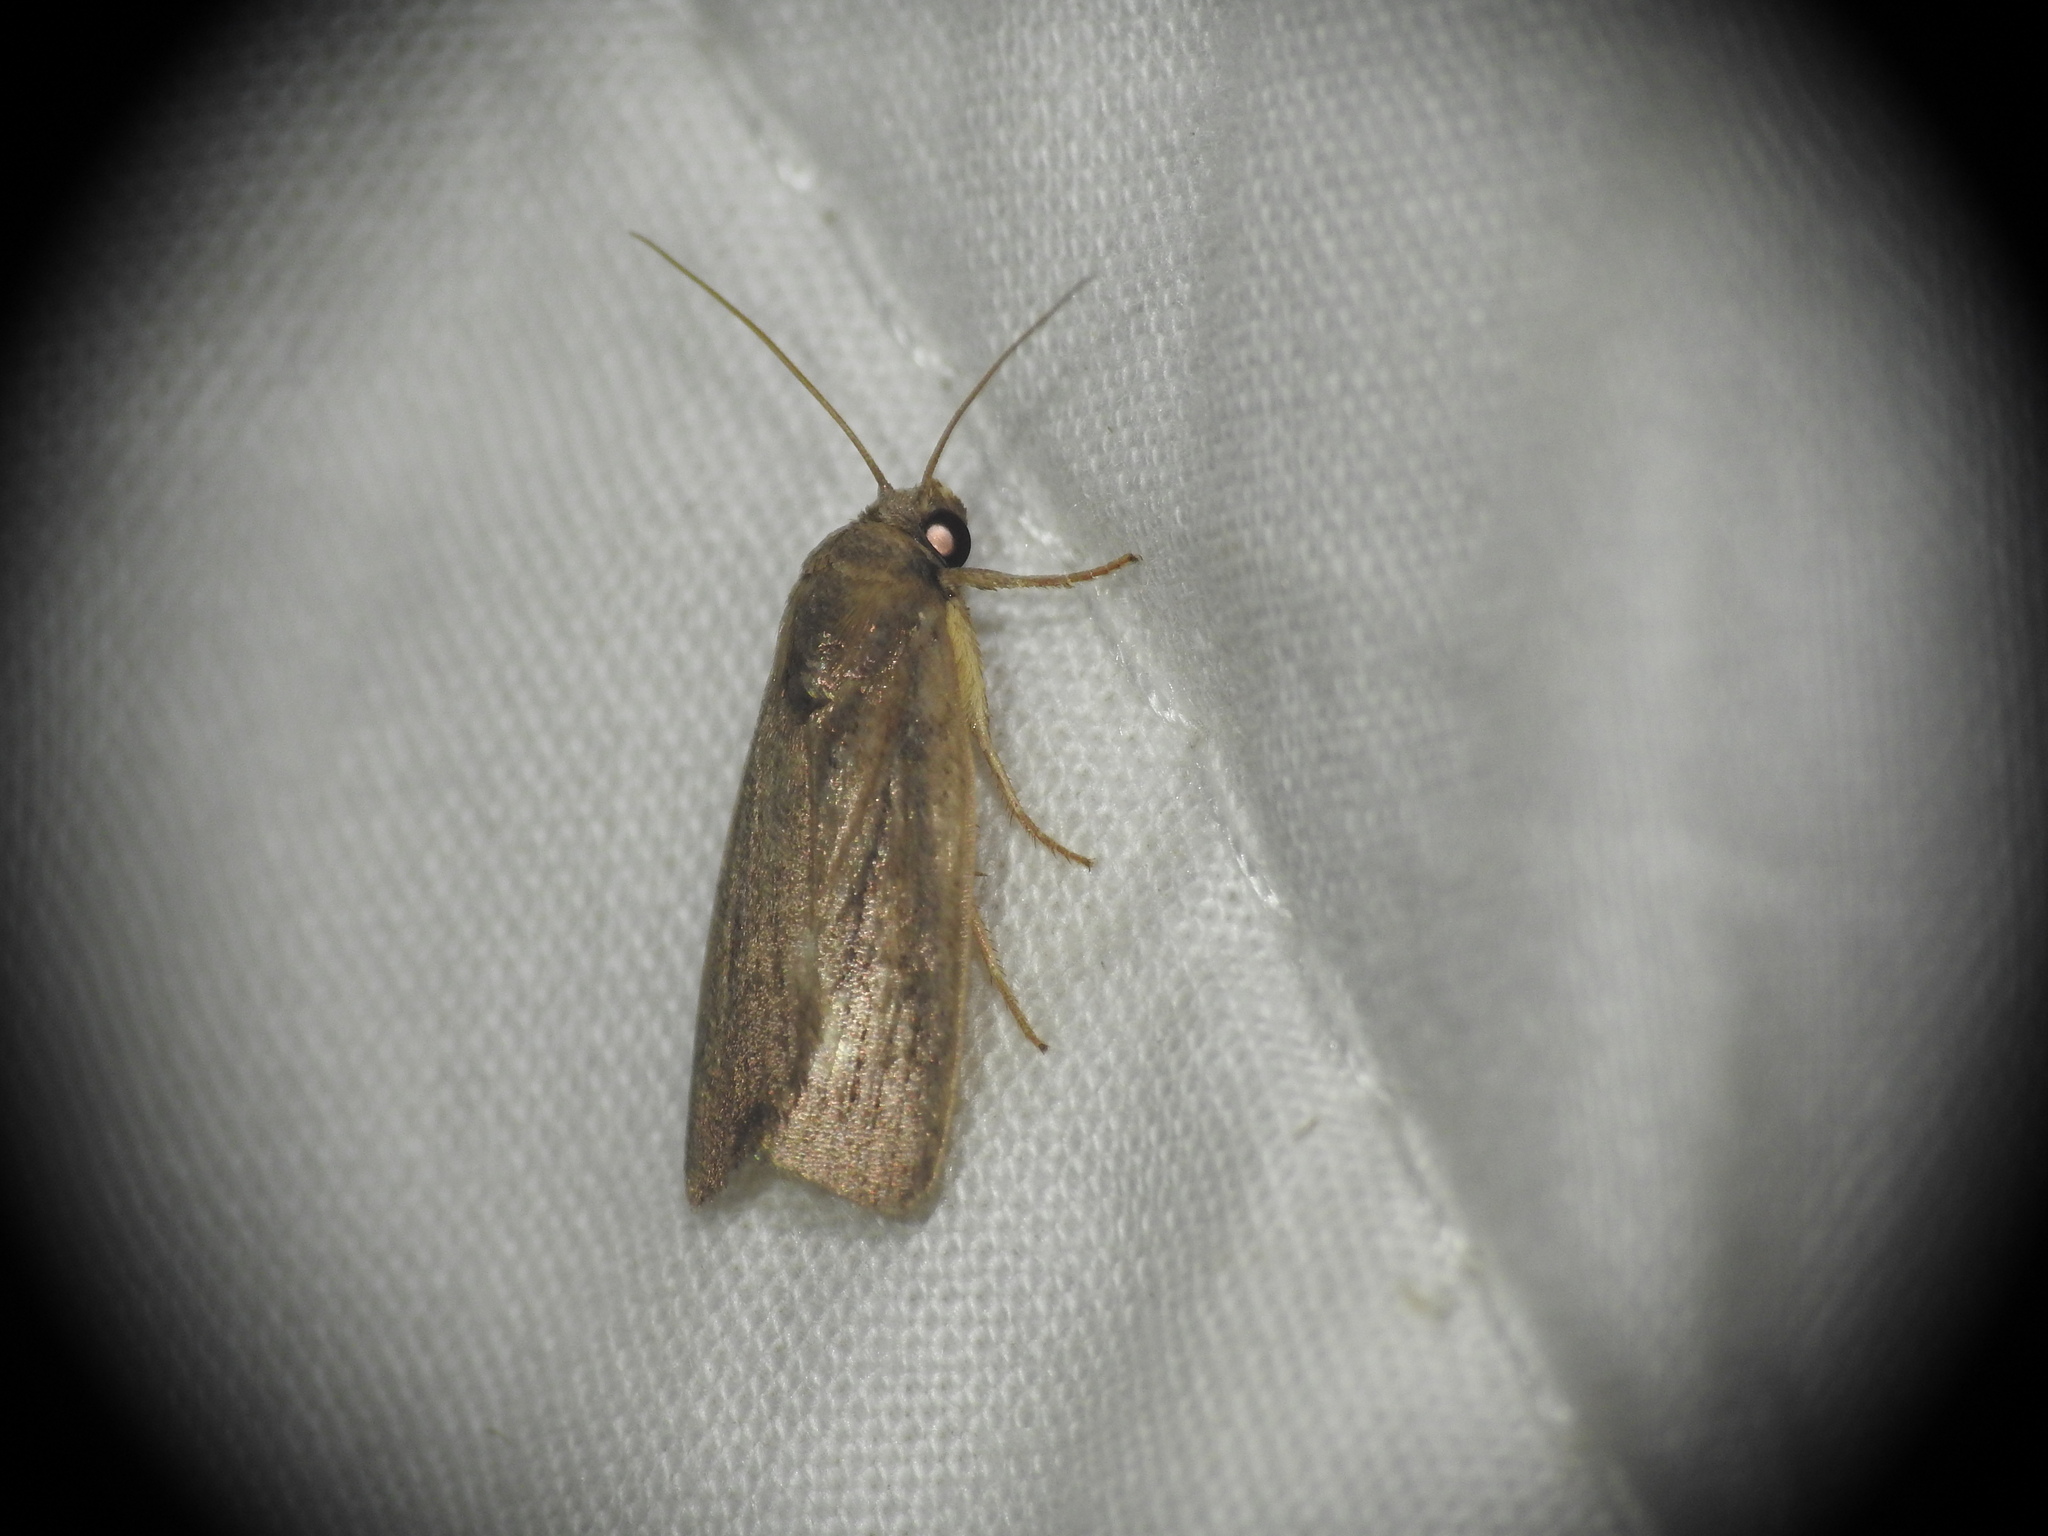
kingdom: Animalia
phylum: Arthropoda
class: Insecta
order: Lepidoptera
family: Noctuidae
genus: Athetis
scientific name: Athetis hospes
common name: Porter's rustic
